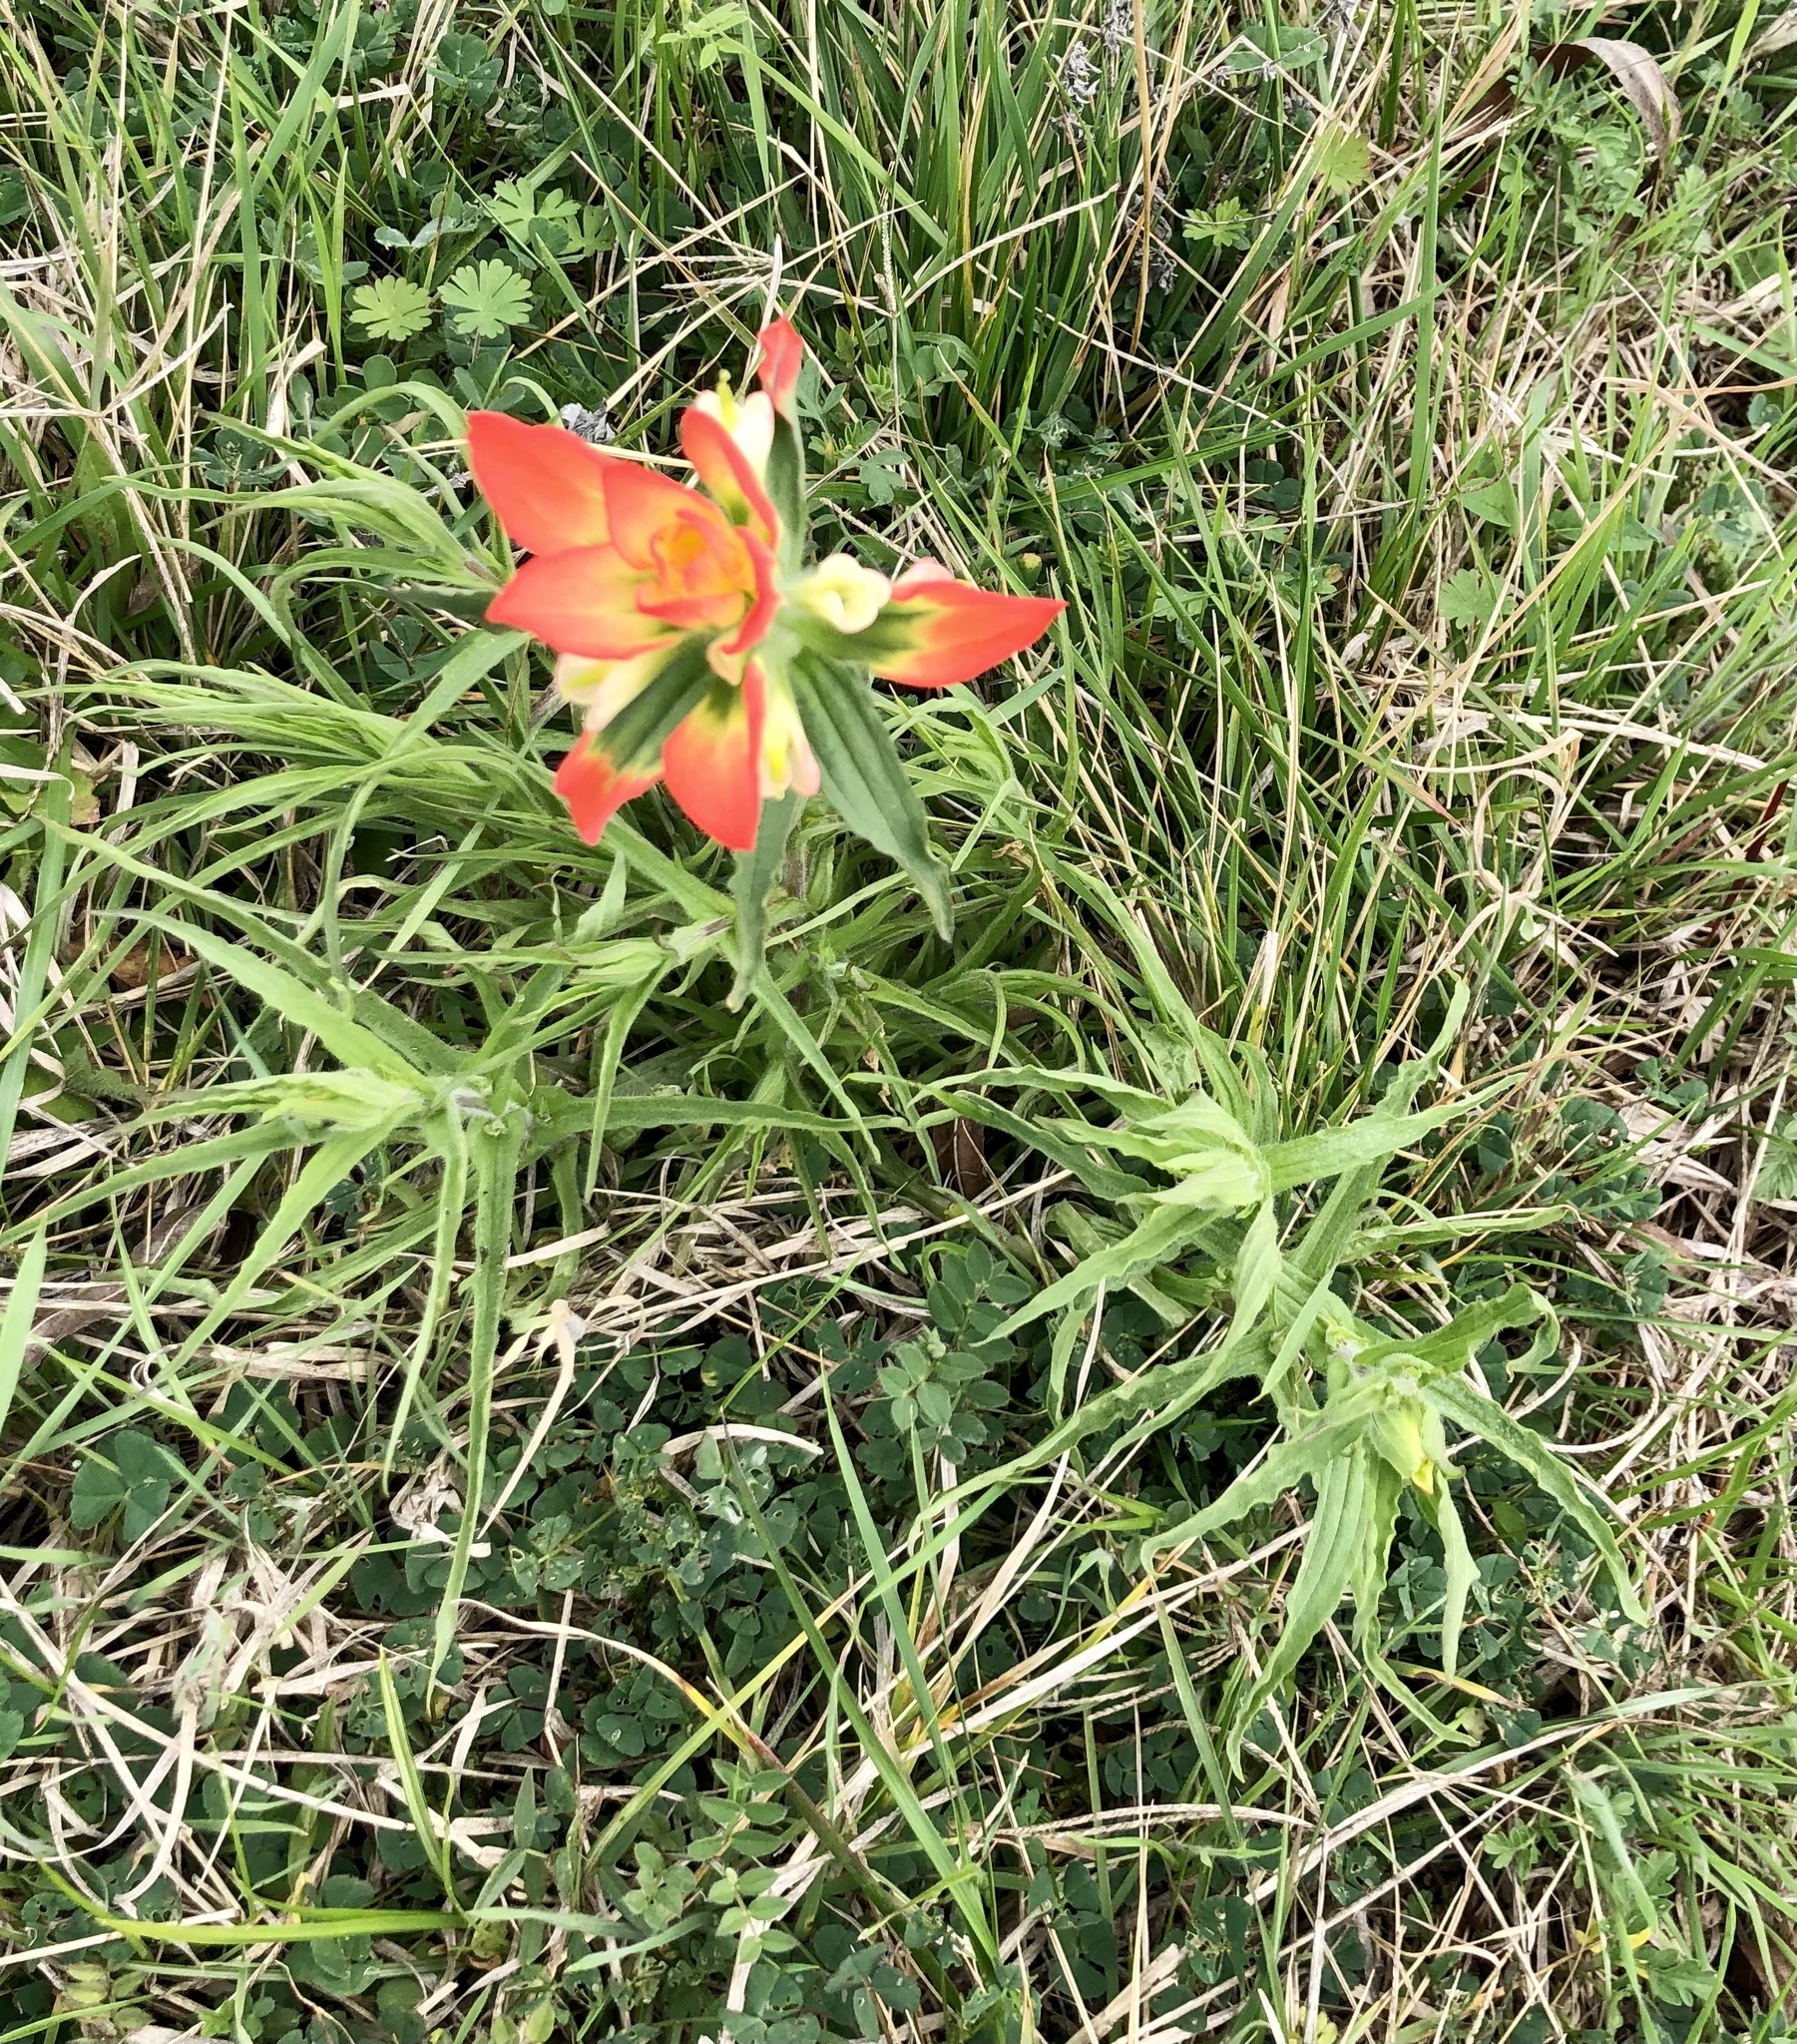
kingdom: Plantae
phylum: Tracheophyta
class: Magnoliopsida
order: Lamiales
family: Orobanchaceae
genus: Castilleja
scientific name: Castilleja indivisa
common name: Texas paintbrush
